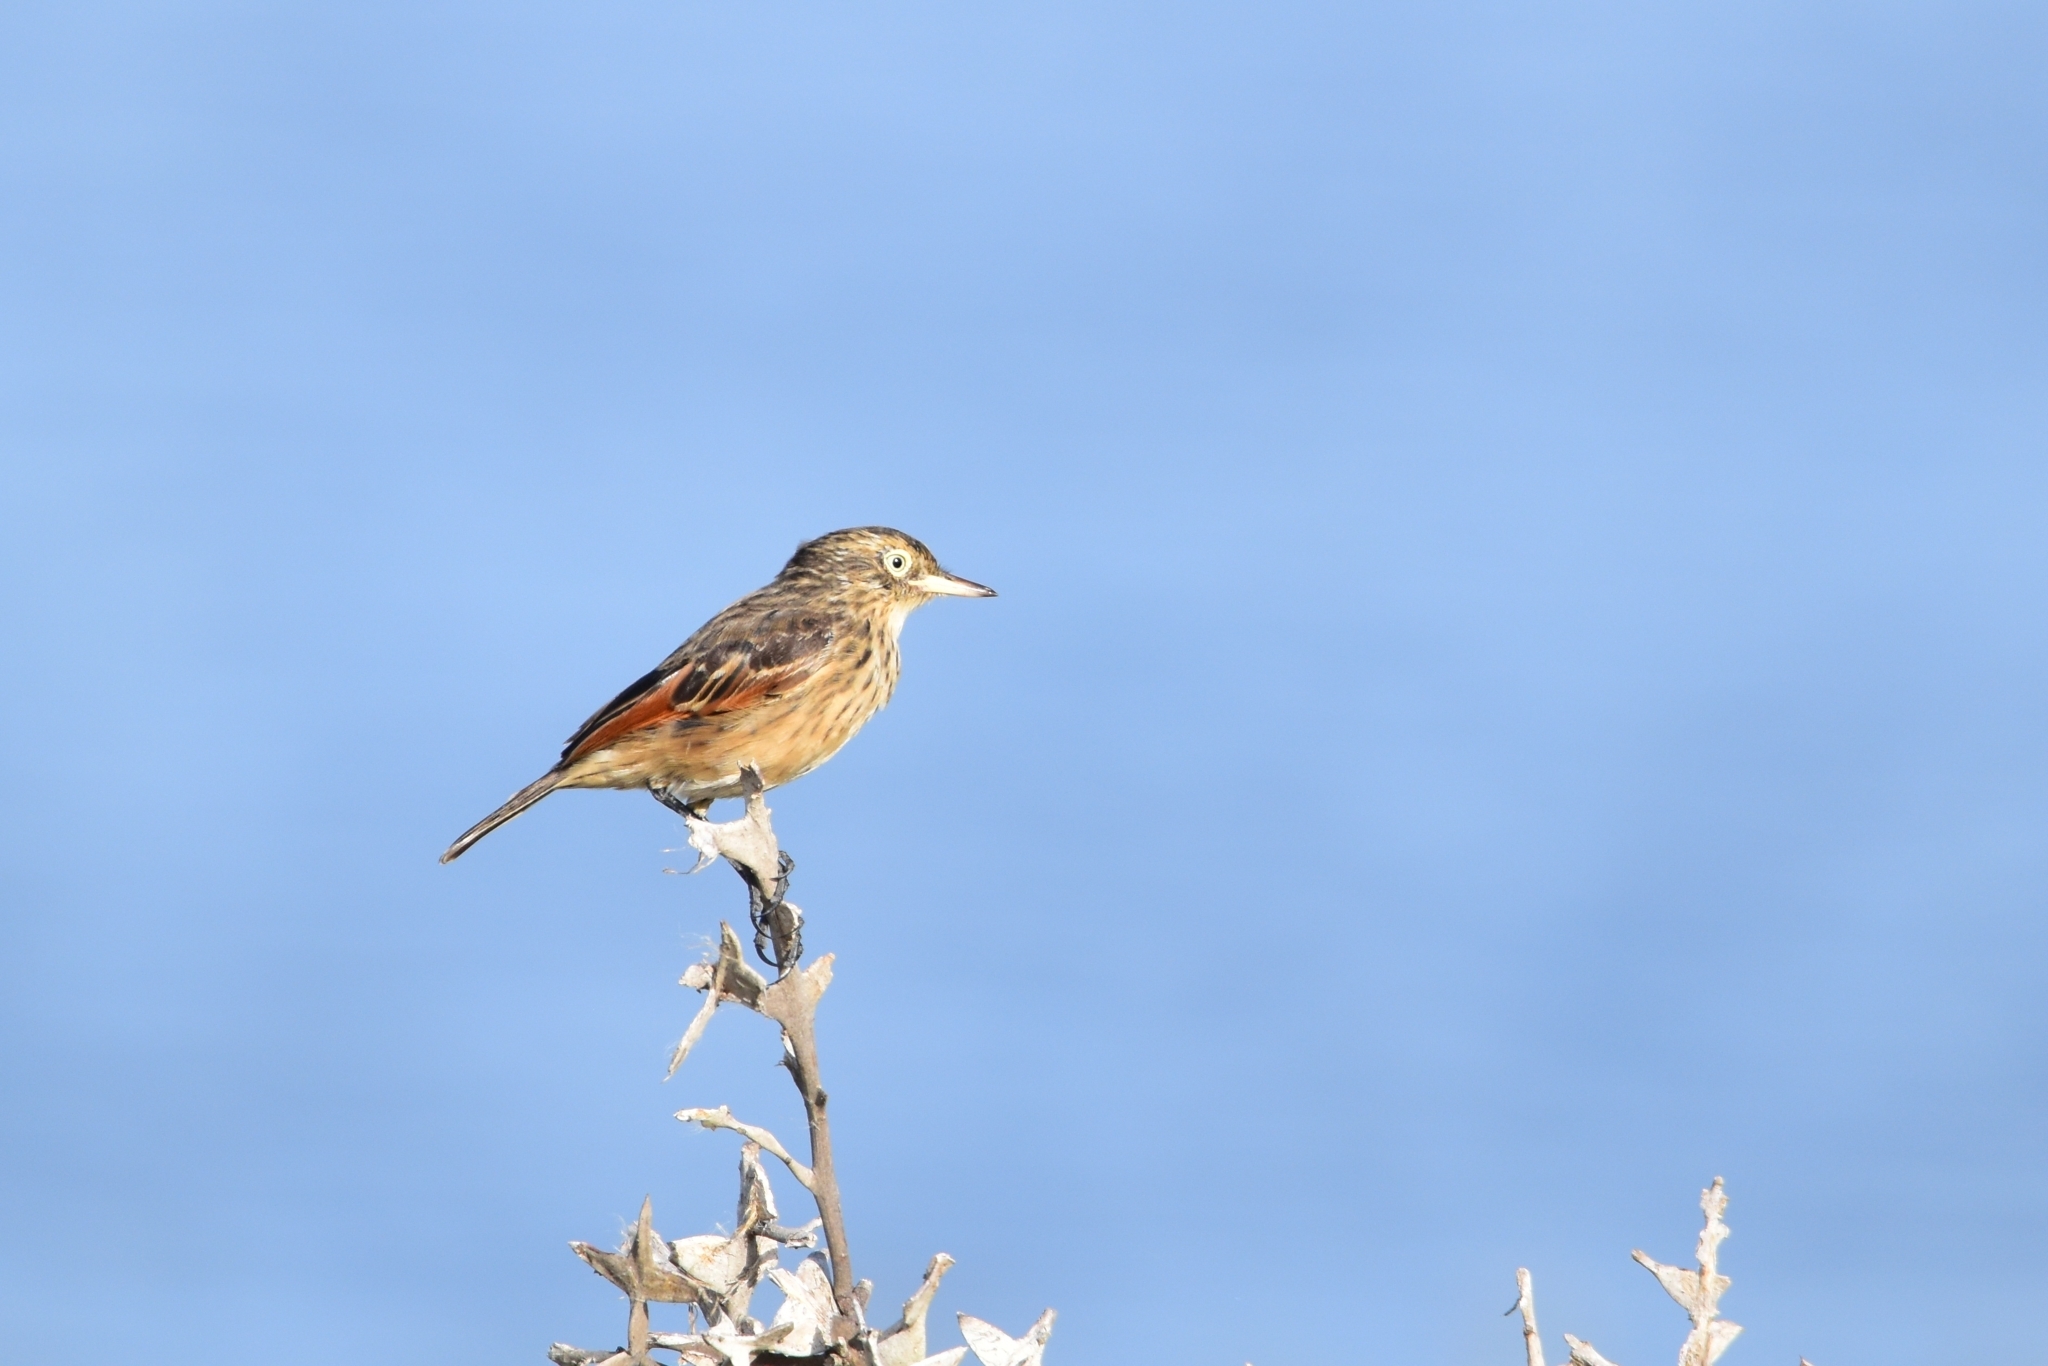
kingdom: Animalia
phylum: Chordata
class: Aves
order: Passeriformes
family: Tyrannidae
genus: Hymenops
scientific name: Hymenops perspicillatus
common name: Spectacled tyrant
